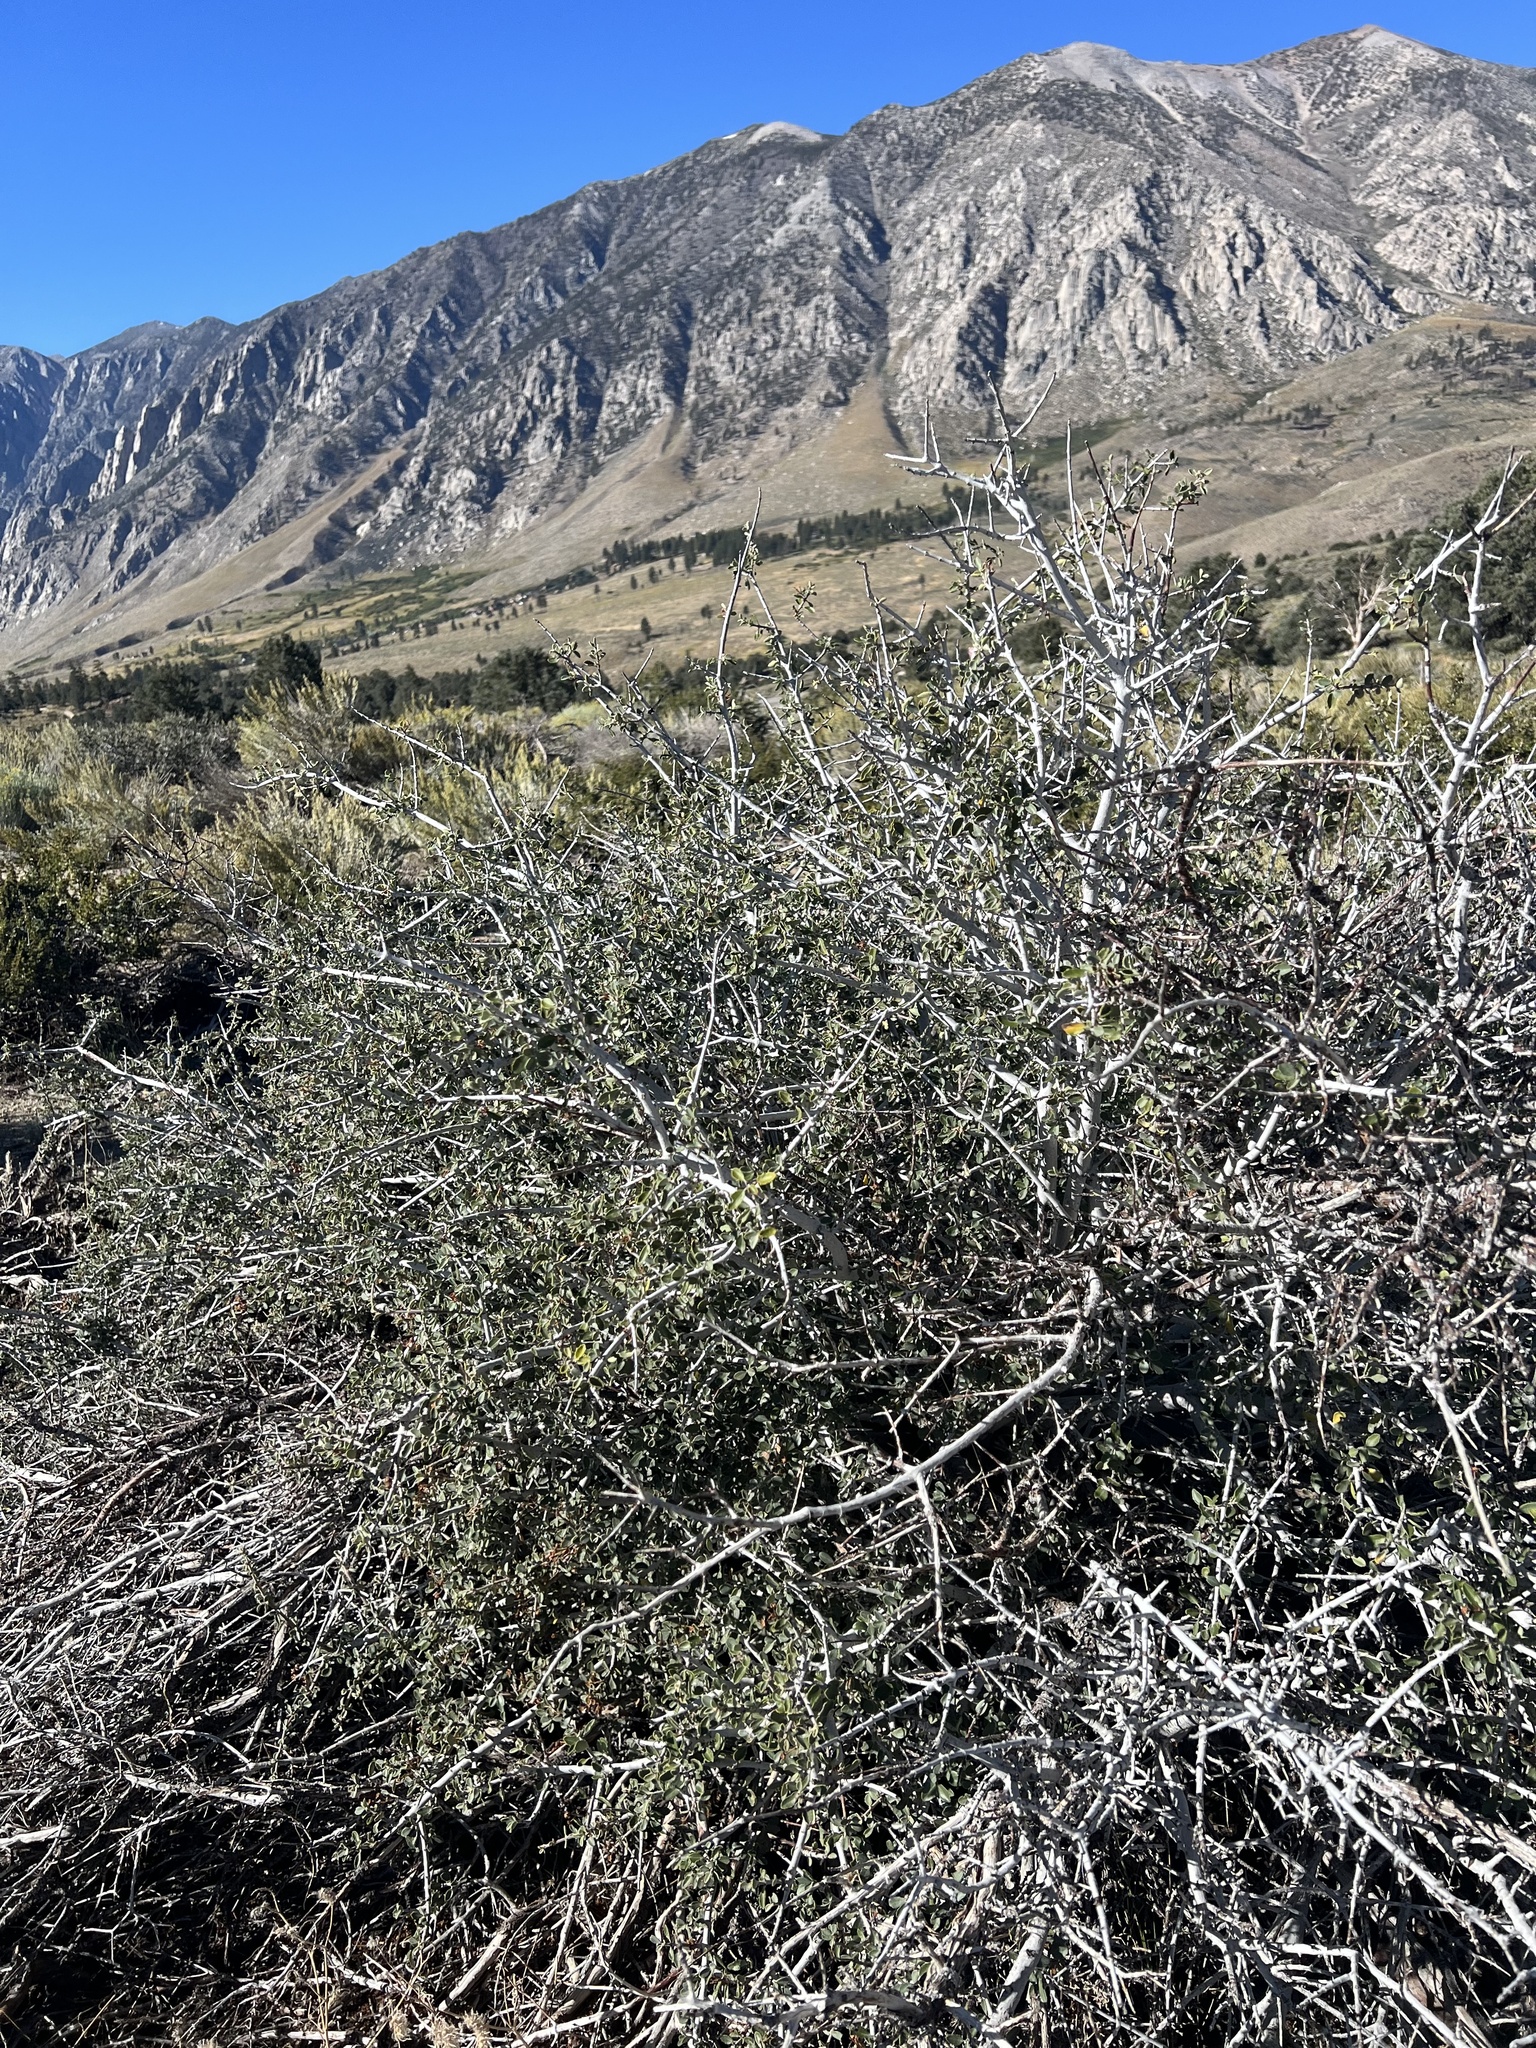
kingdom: Plantae
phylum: Tracheophyta
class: Magnoliopsida
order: Rosales
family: Rhamnaceae
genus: Ceanothus
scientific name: Ceanothus pauciflorus
